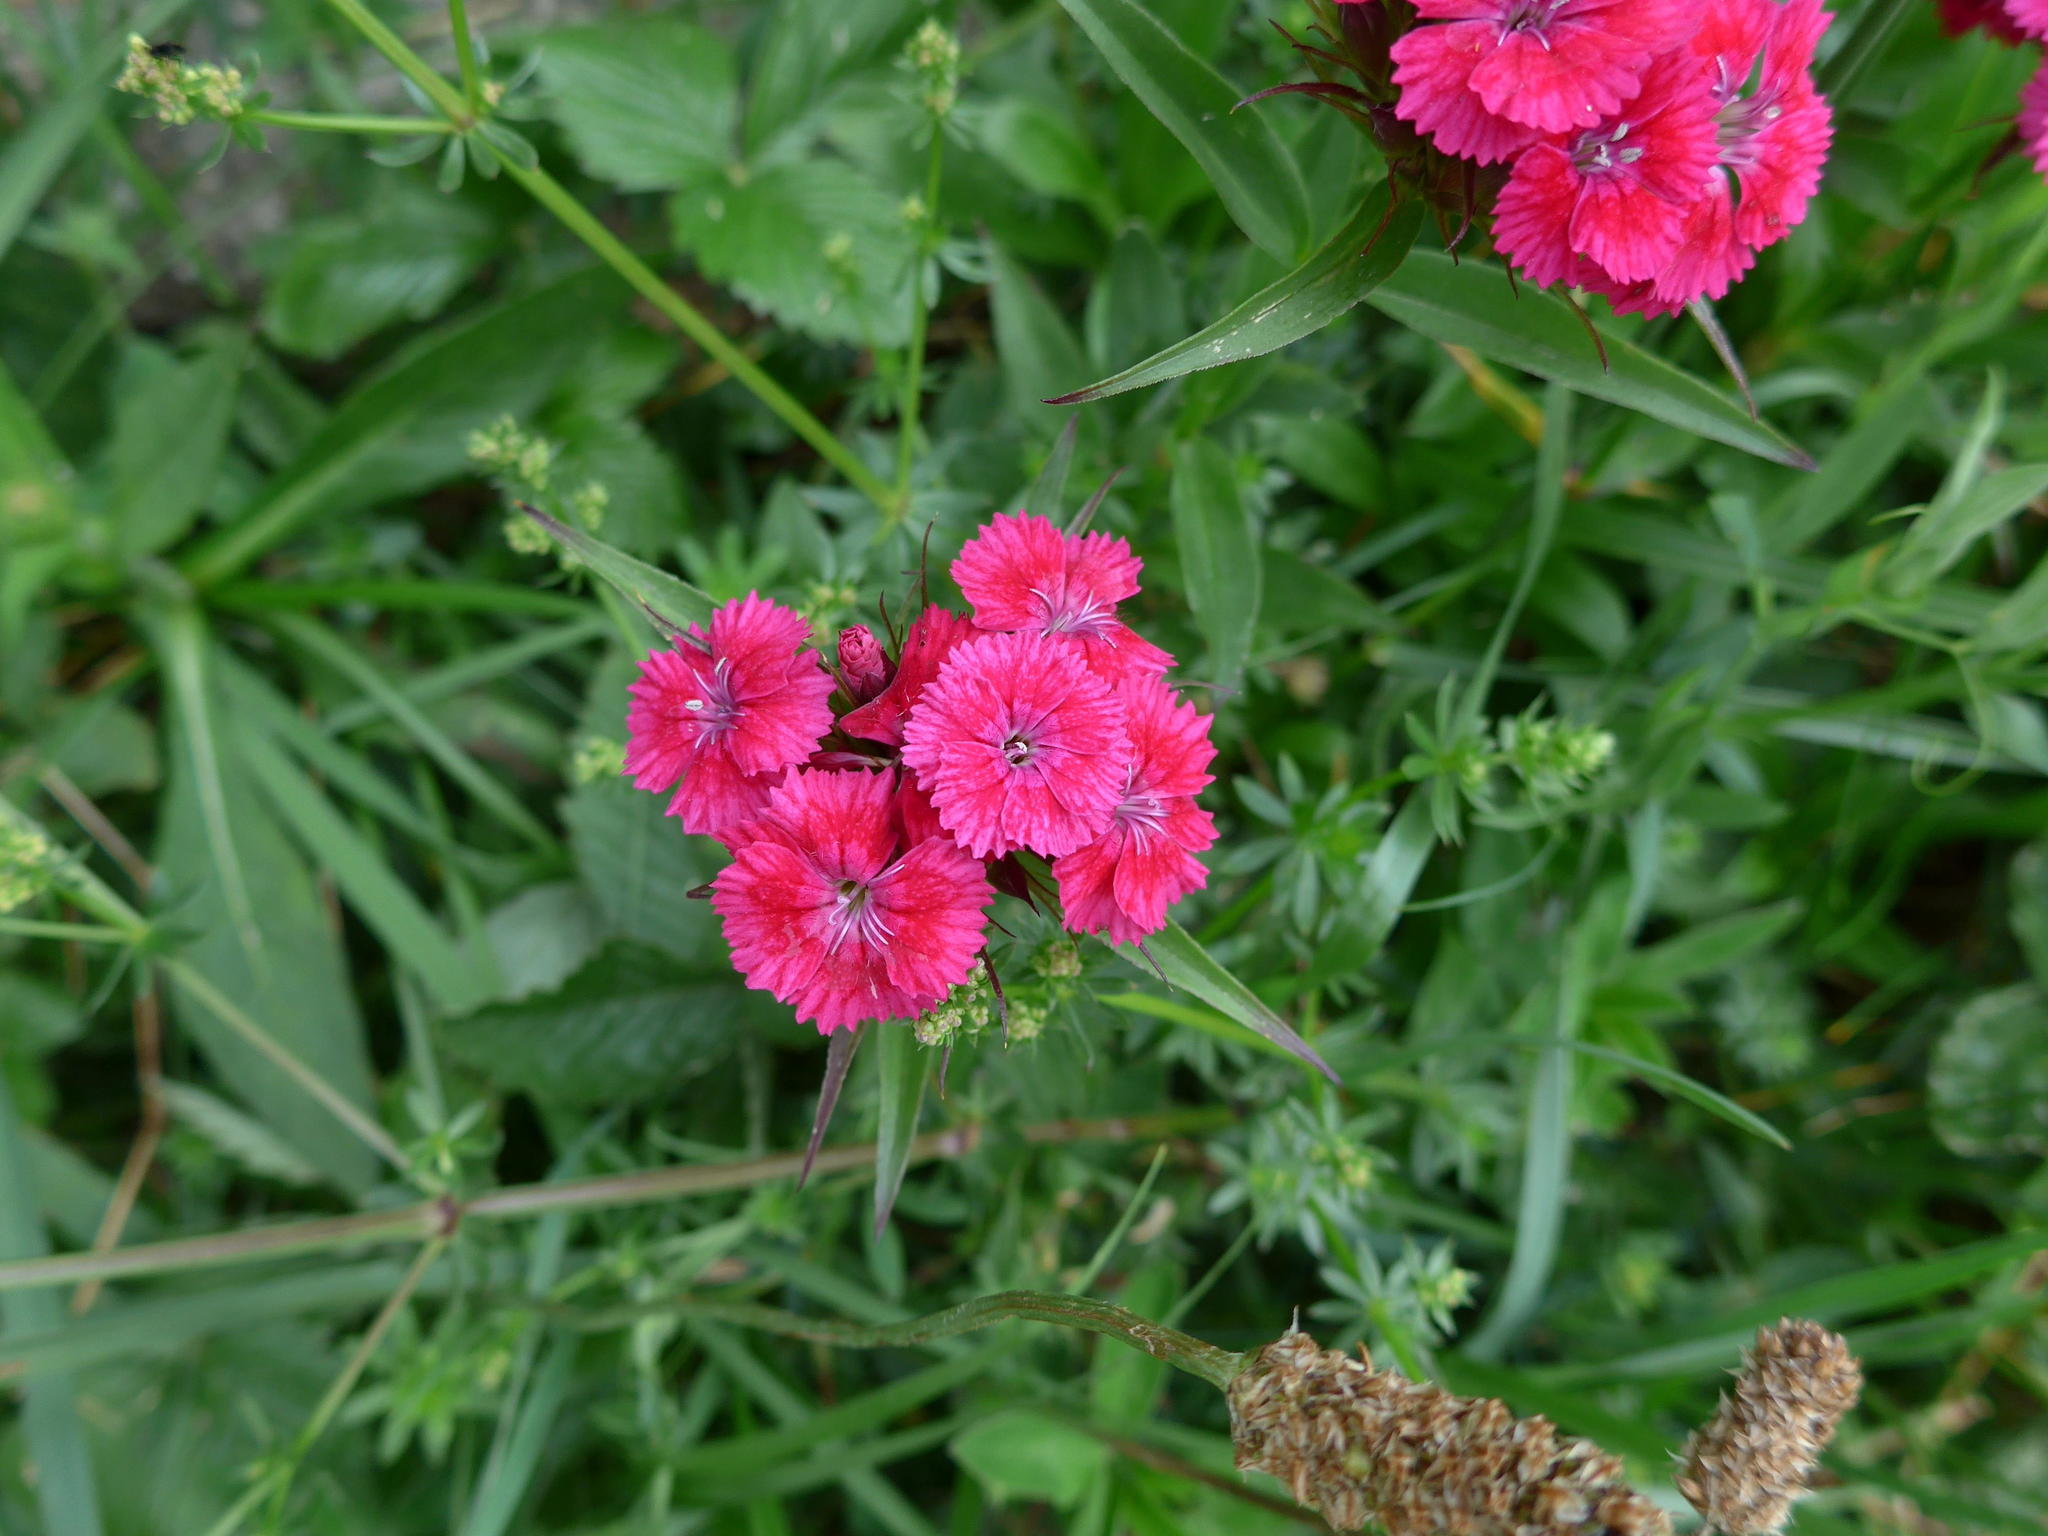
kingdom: Plantae
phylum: Tracheophyta
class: Magnoliopsida
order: Caryophyllales
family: Caryophyllaceae
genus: Dianthus
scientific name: Dianthus barbatus
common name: Sweet-william
